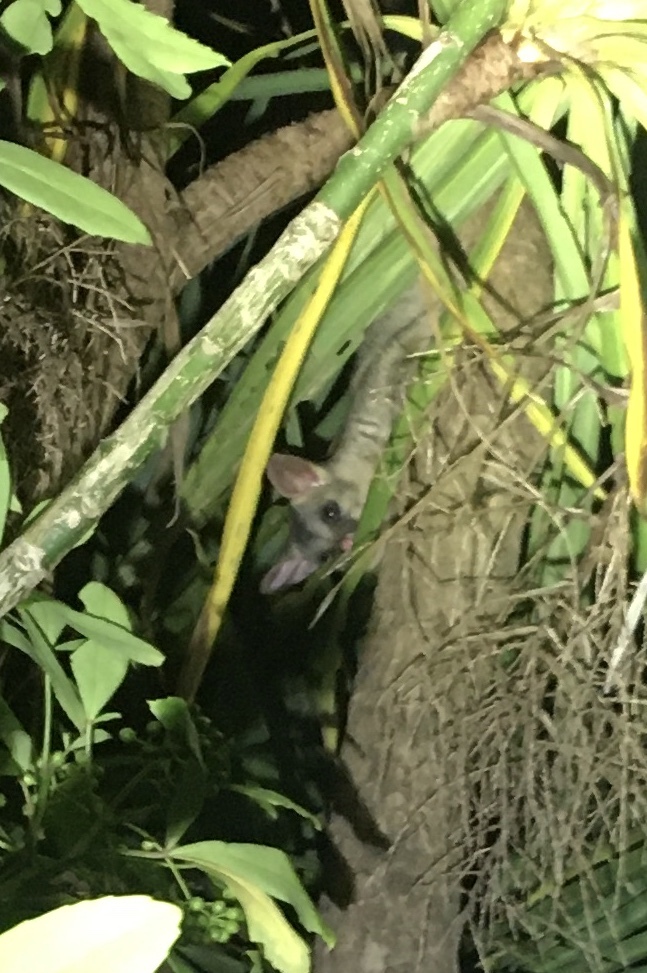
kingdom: Animalia
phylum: Chordata
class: Mammalia
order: Diprotodontia
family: Phalangeridae
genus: Trichosurus
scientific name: Trichosurus vulpecula
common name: Common brushtail
